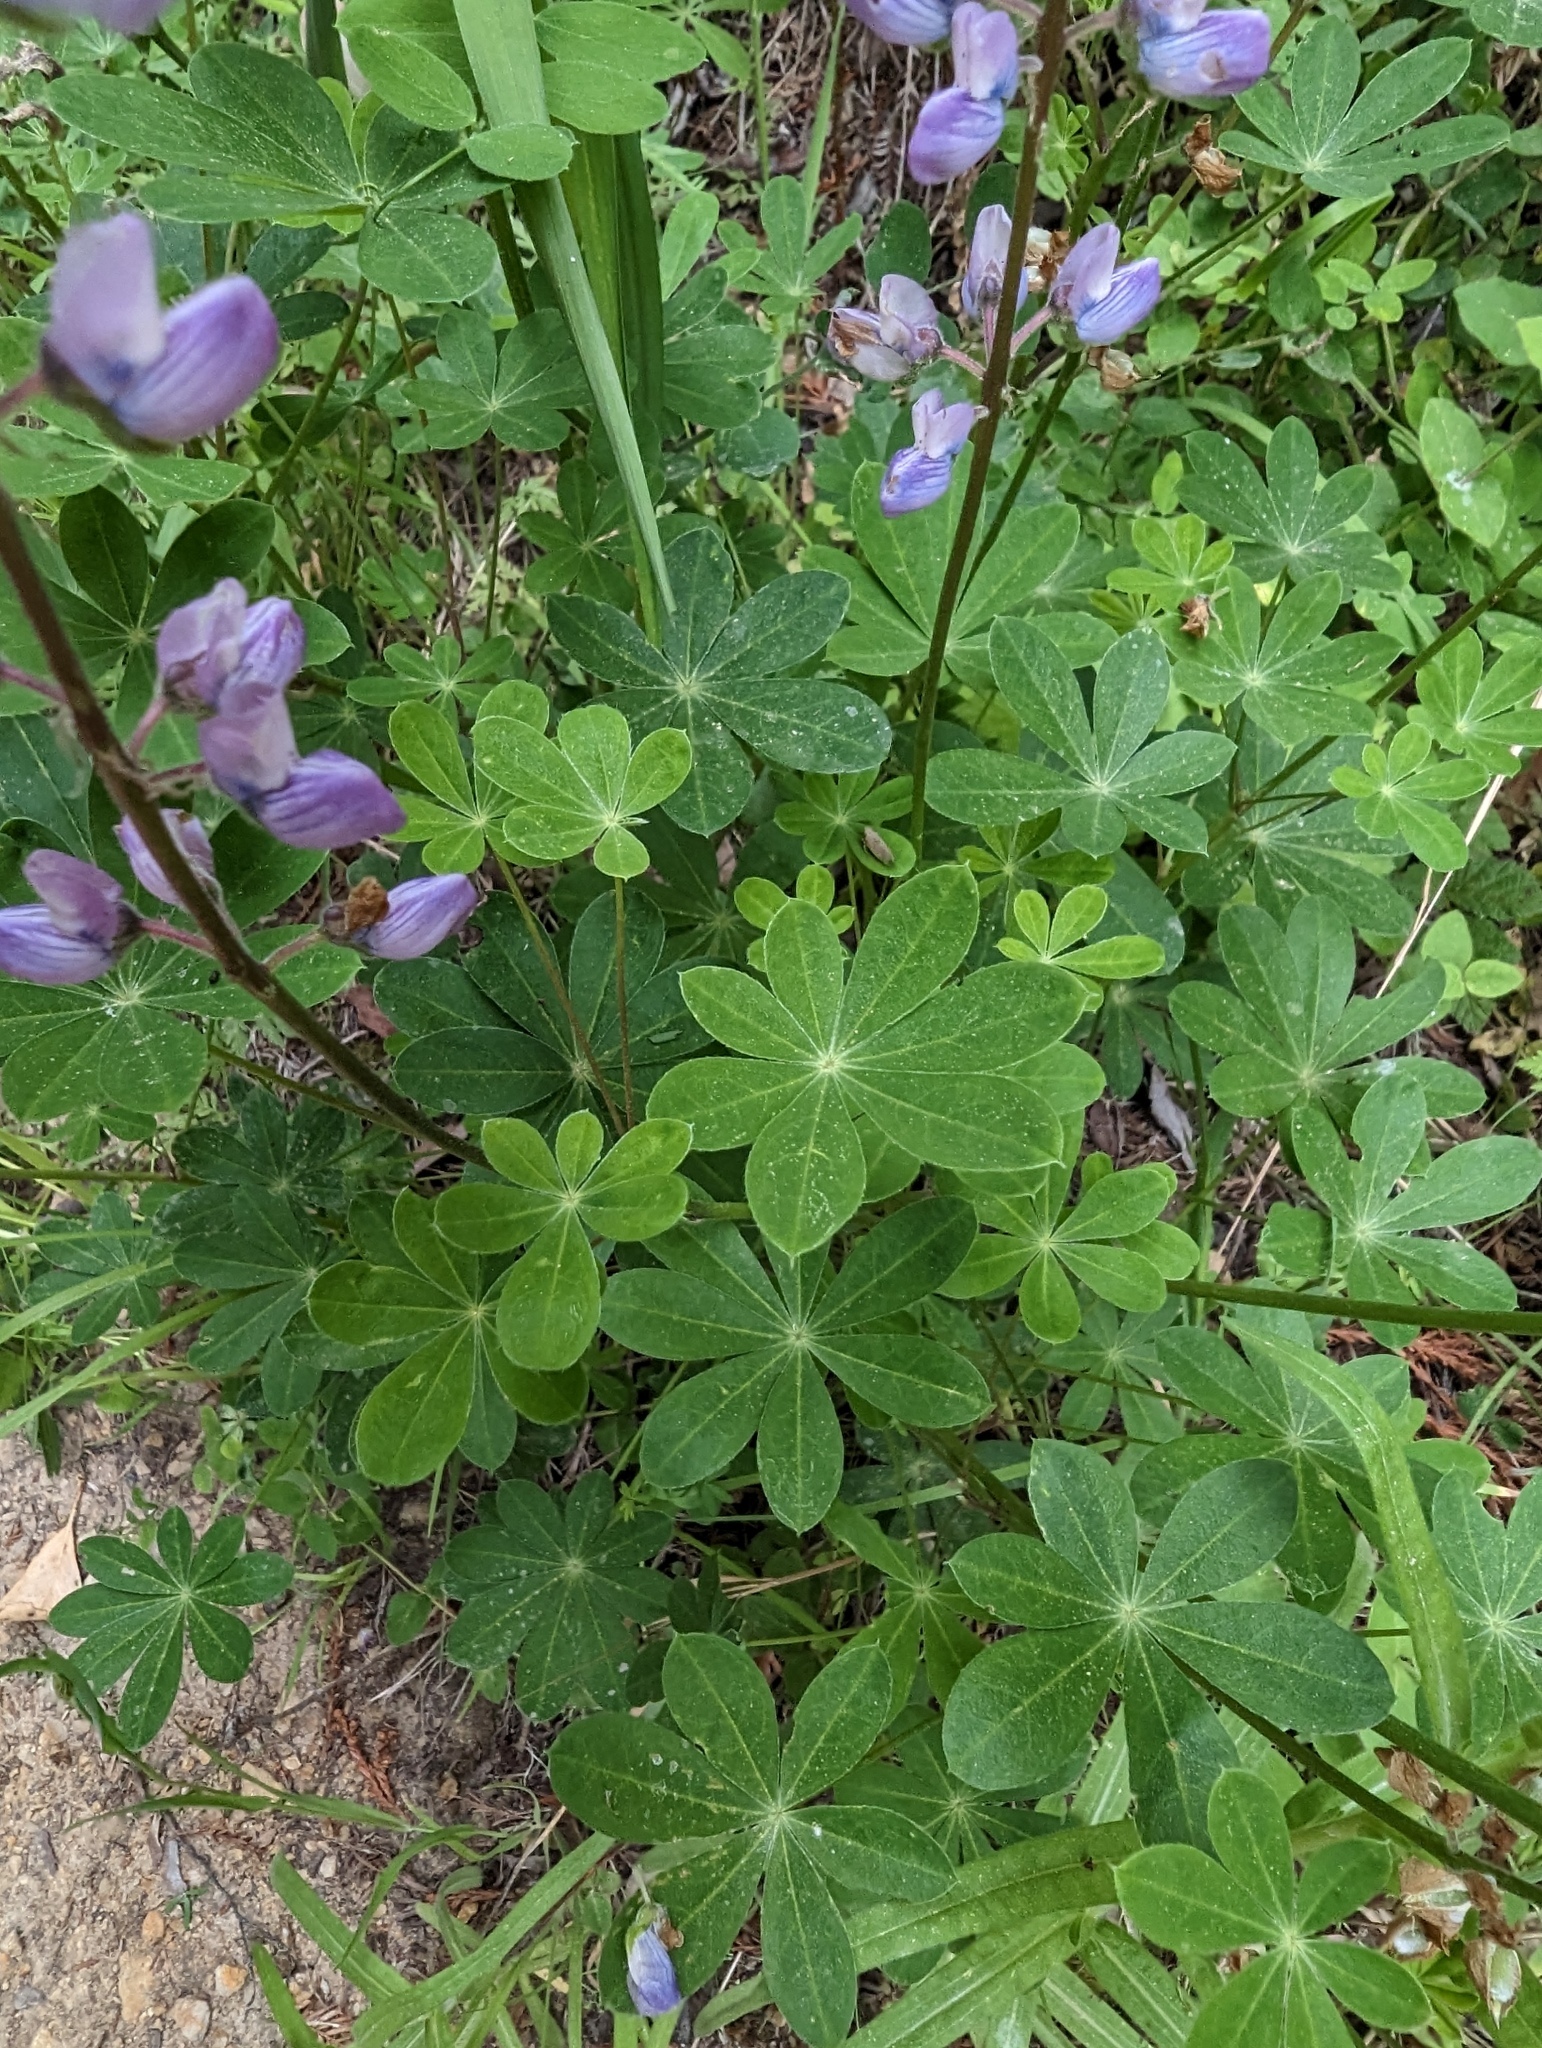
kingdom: Plantae
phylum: Tracheophyta
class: Magnoliopsida
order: Fabales
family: Fabaceae
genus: Lupinus
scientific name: Lupinus latifolius
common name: Broad-leaved lupine
